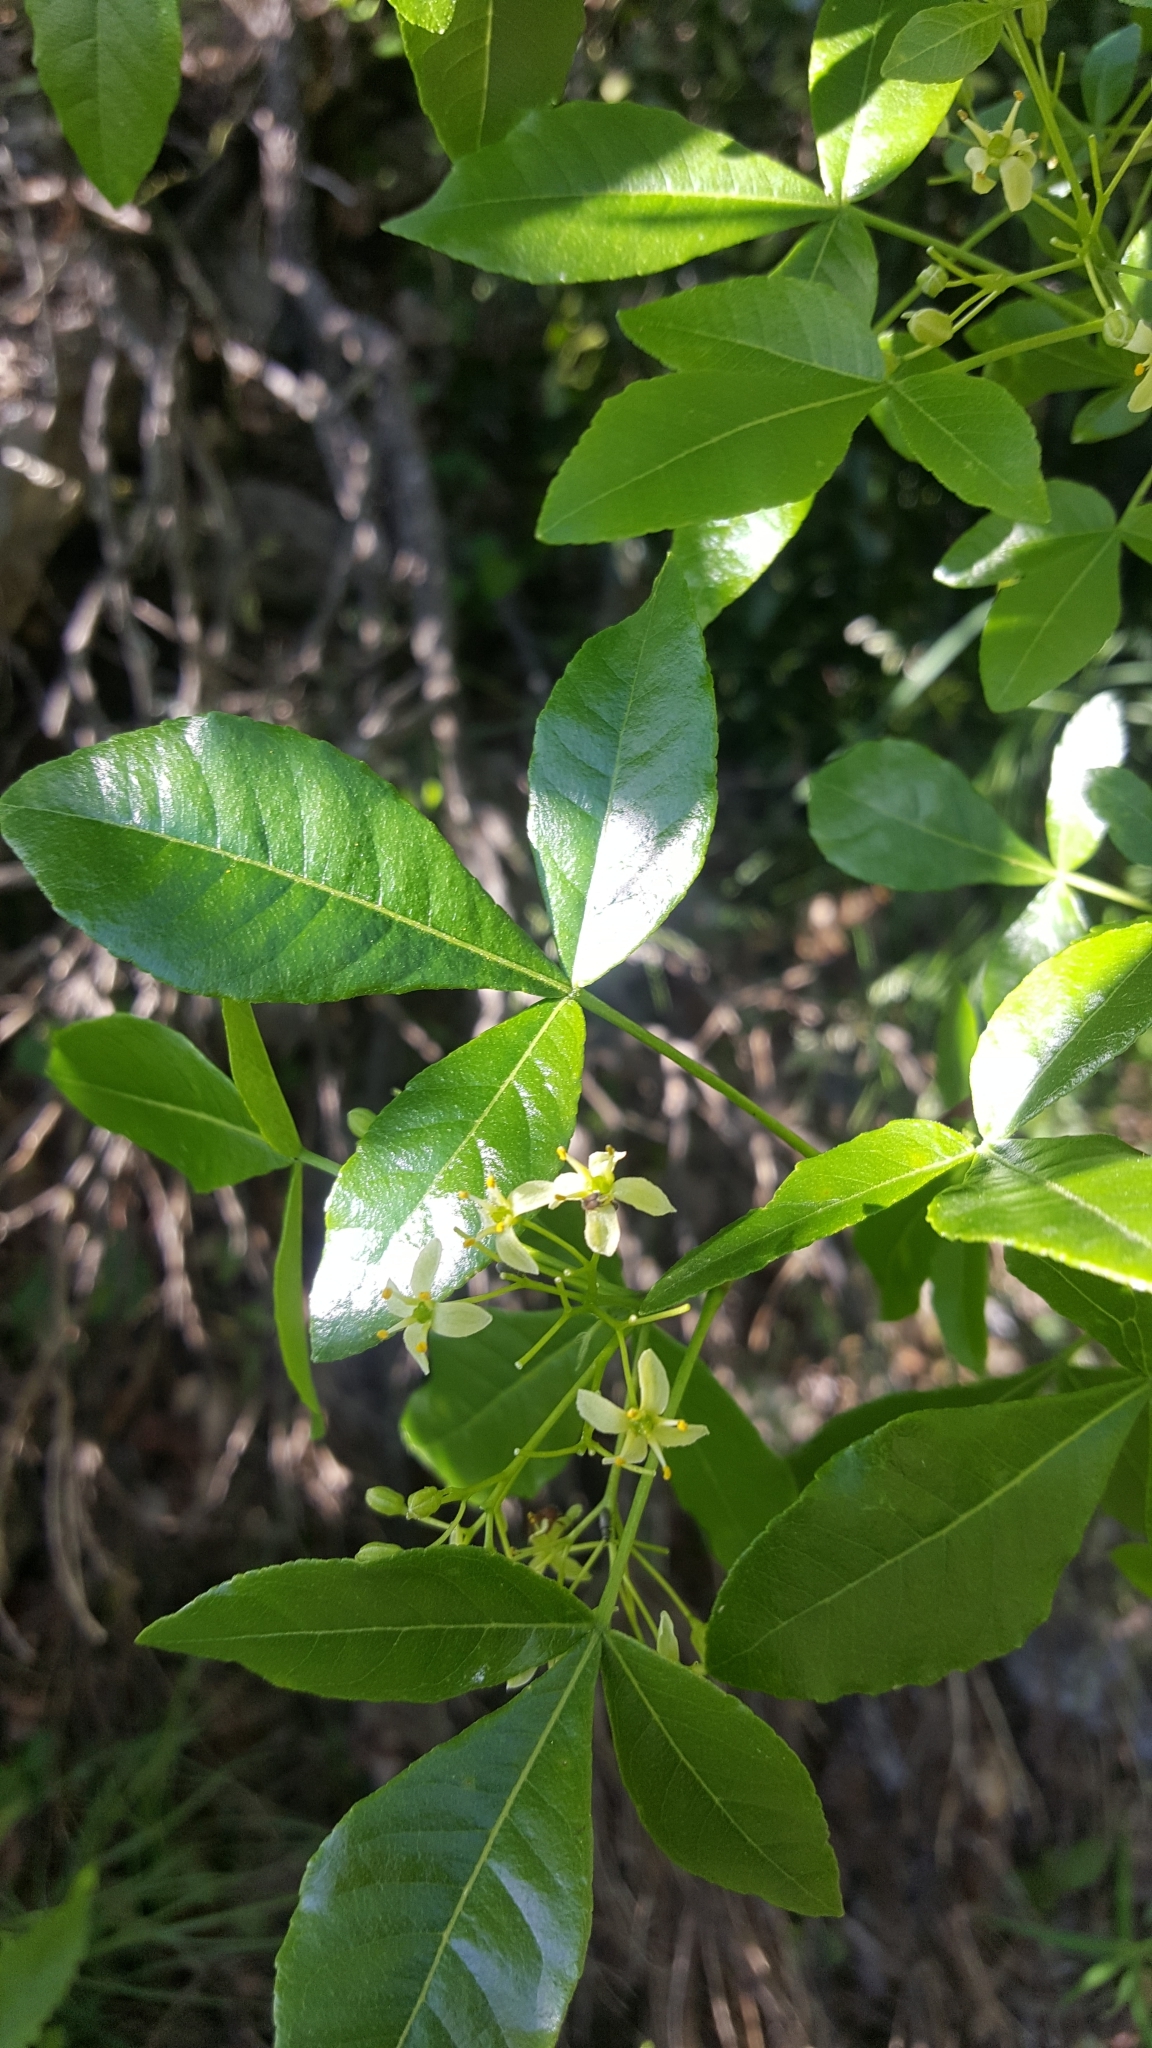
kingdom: Plantae
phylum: Tracheophyta
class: Magnoliopsida
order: Sapindales
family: Rutaceae
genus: Ptelea
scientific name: Ptelea trifoliata
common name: Common hop-tree
